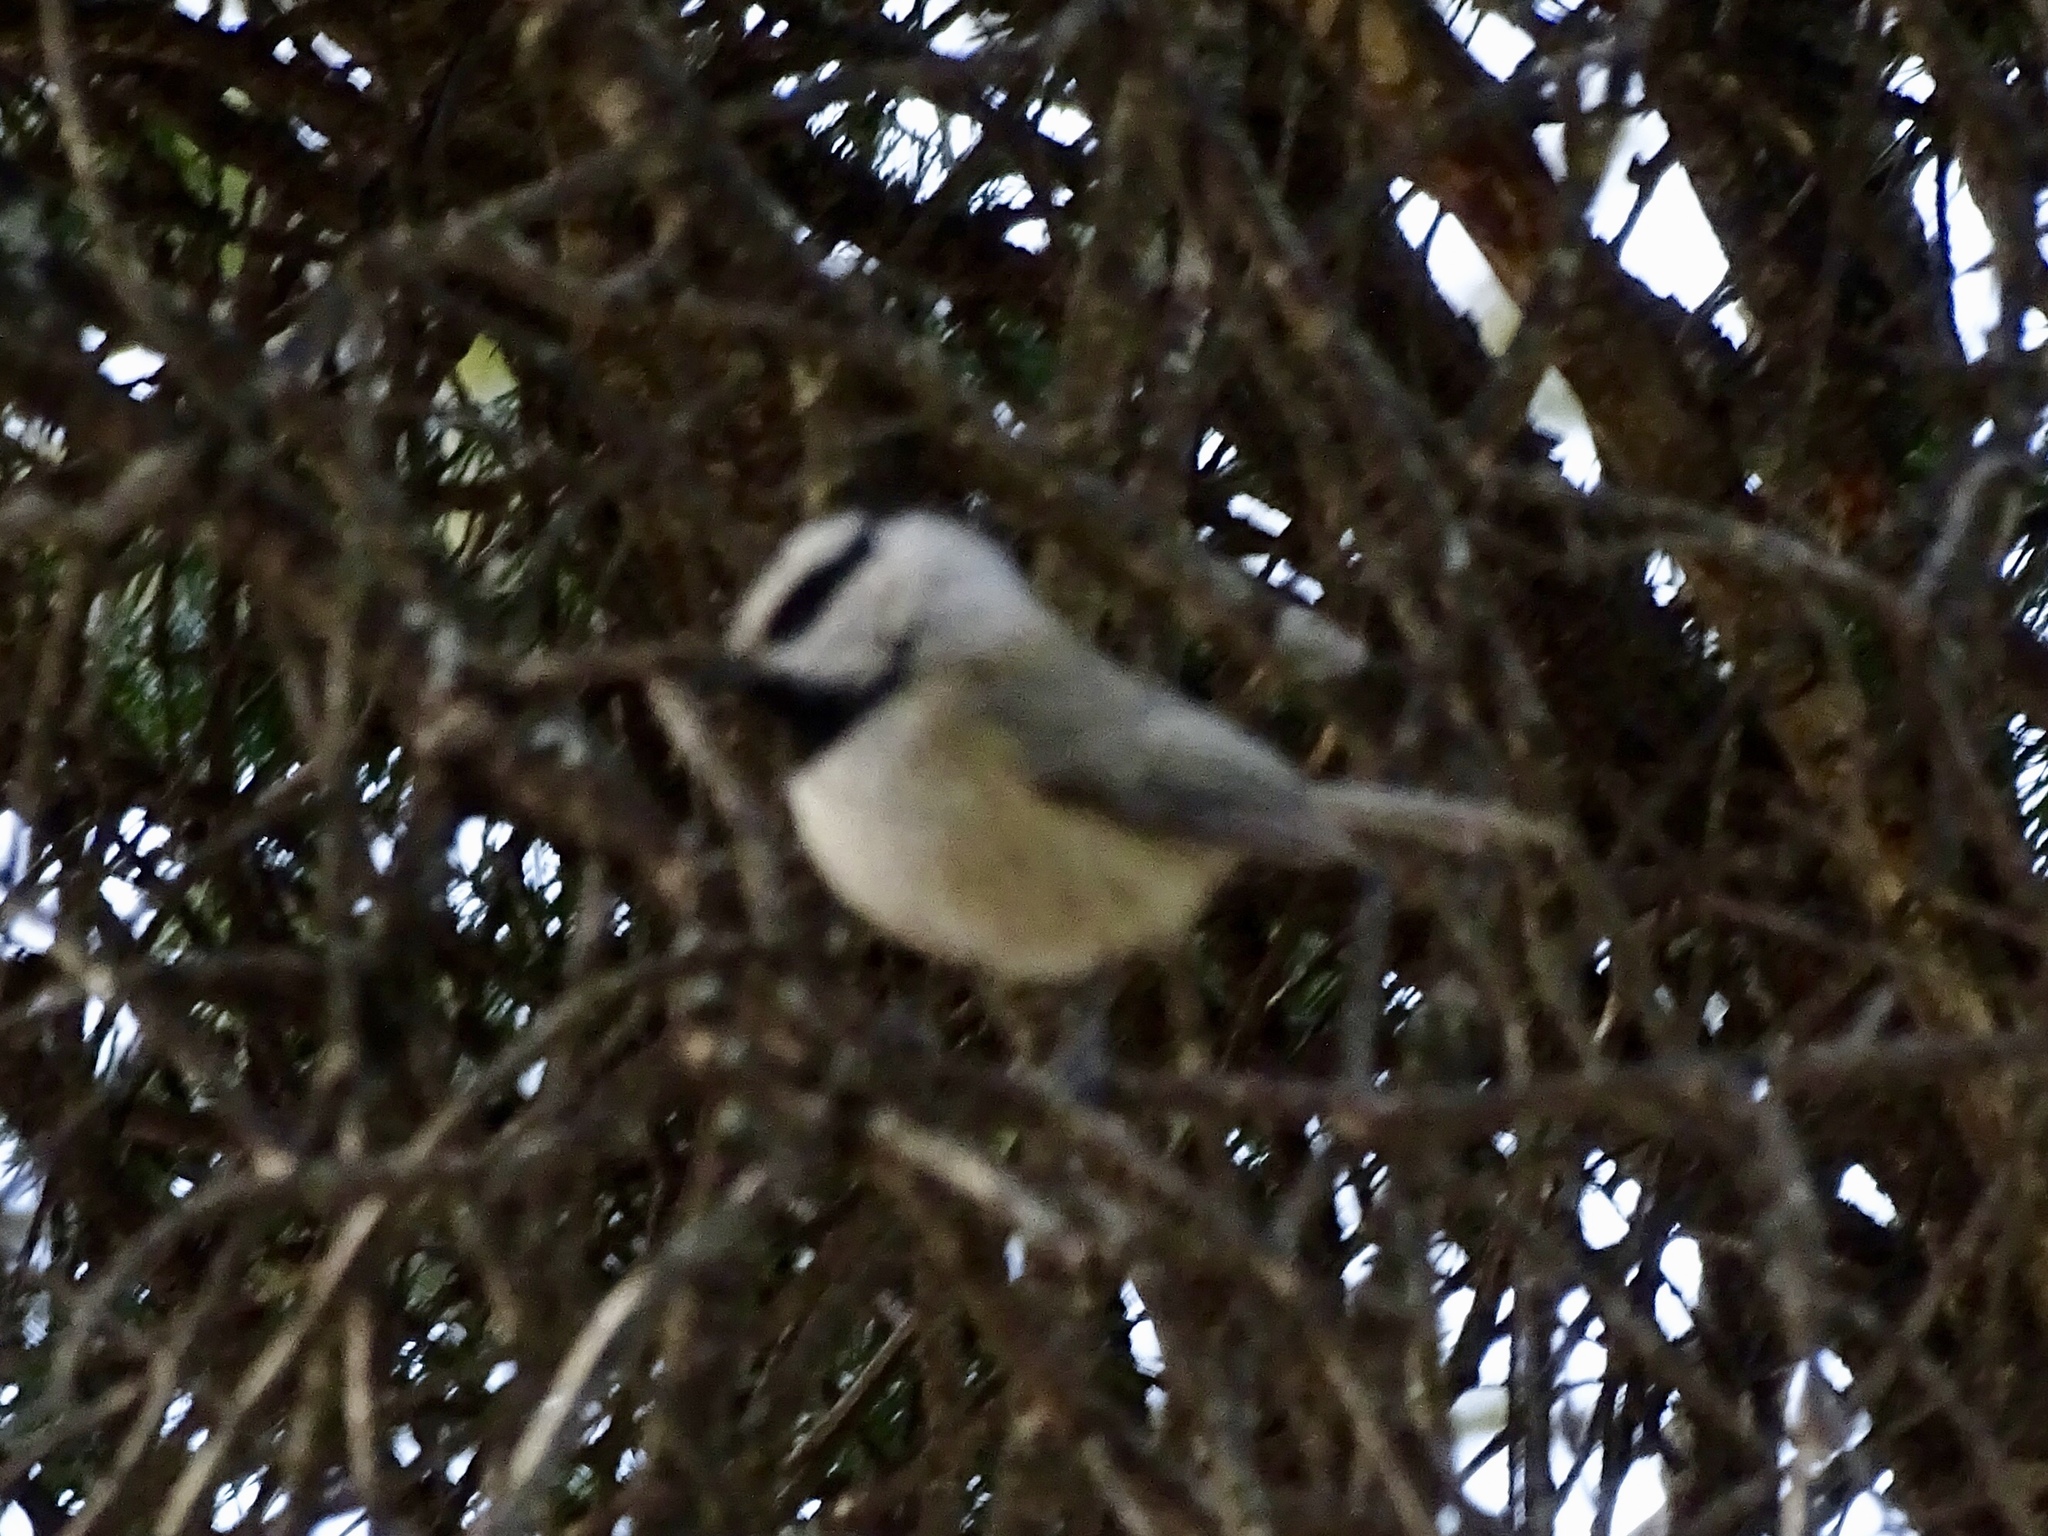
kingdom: Animalia
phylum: Chordata
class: Aves
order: Passeriformes
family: Paridae
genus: Poecile
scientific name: Poecile gambeli
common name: Mountain chickadee
